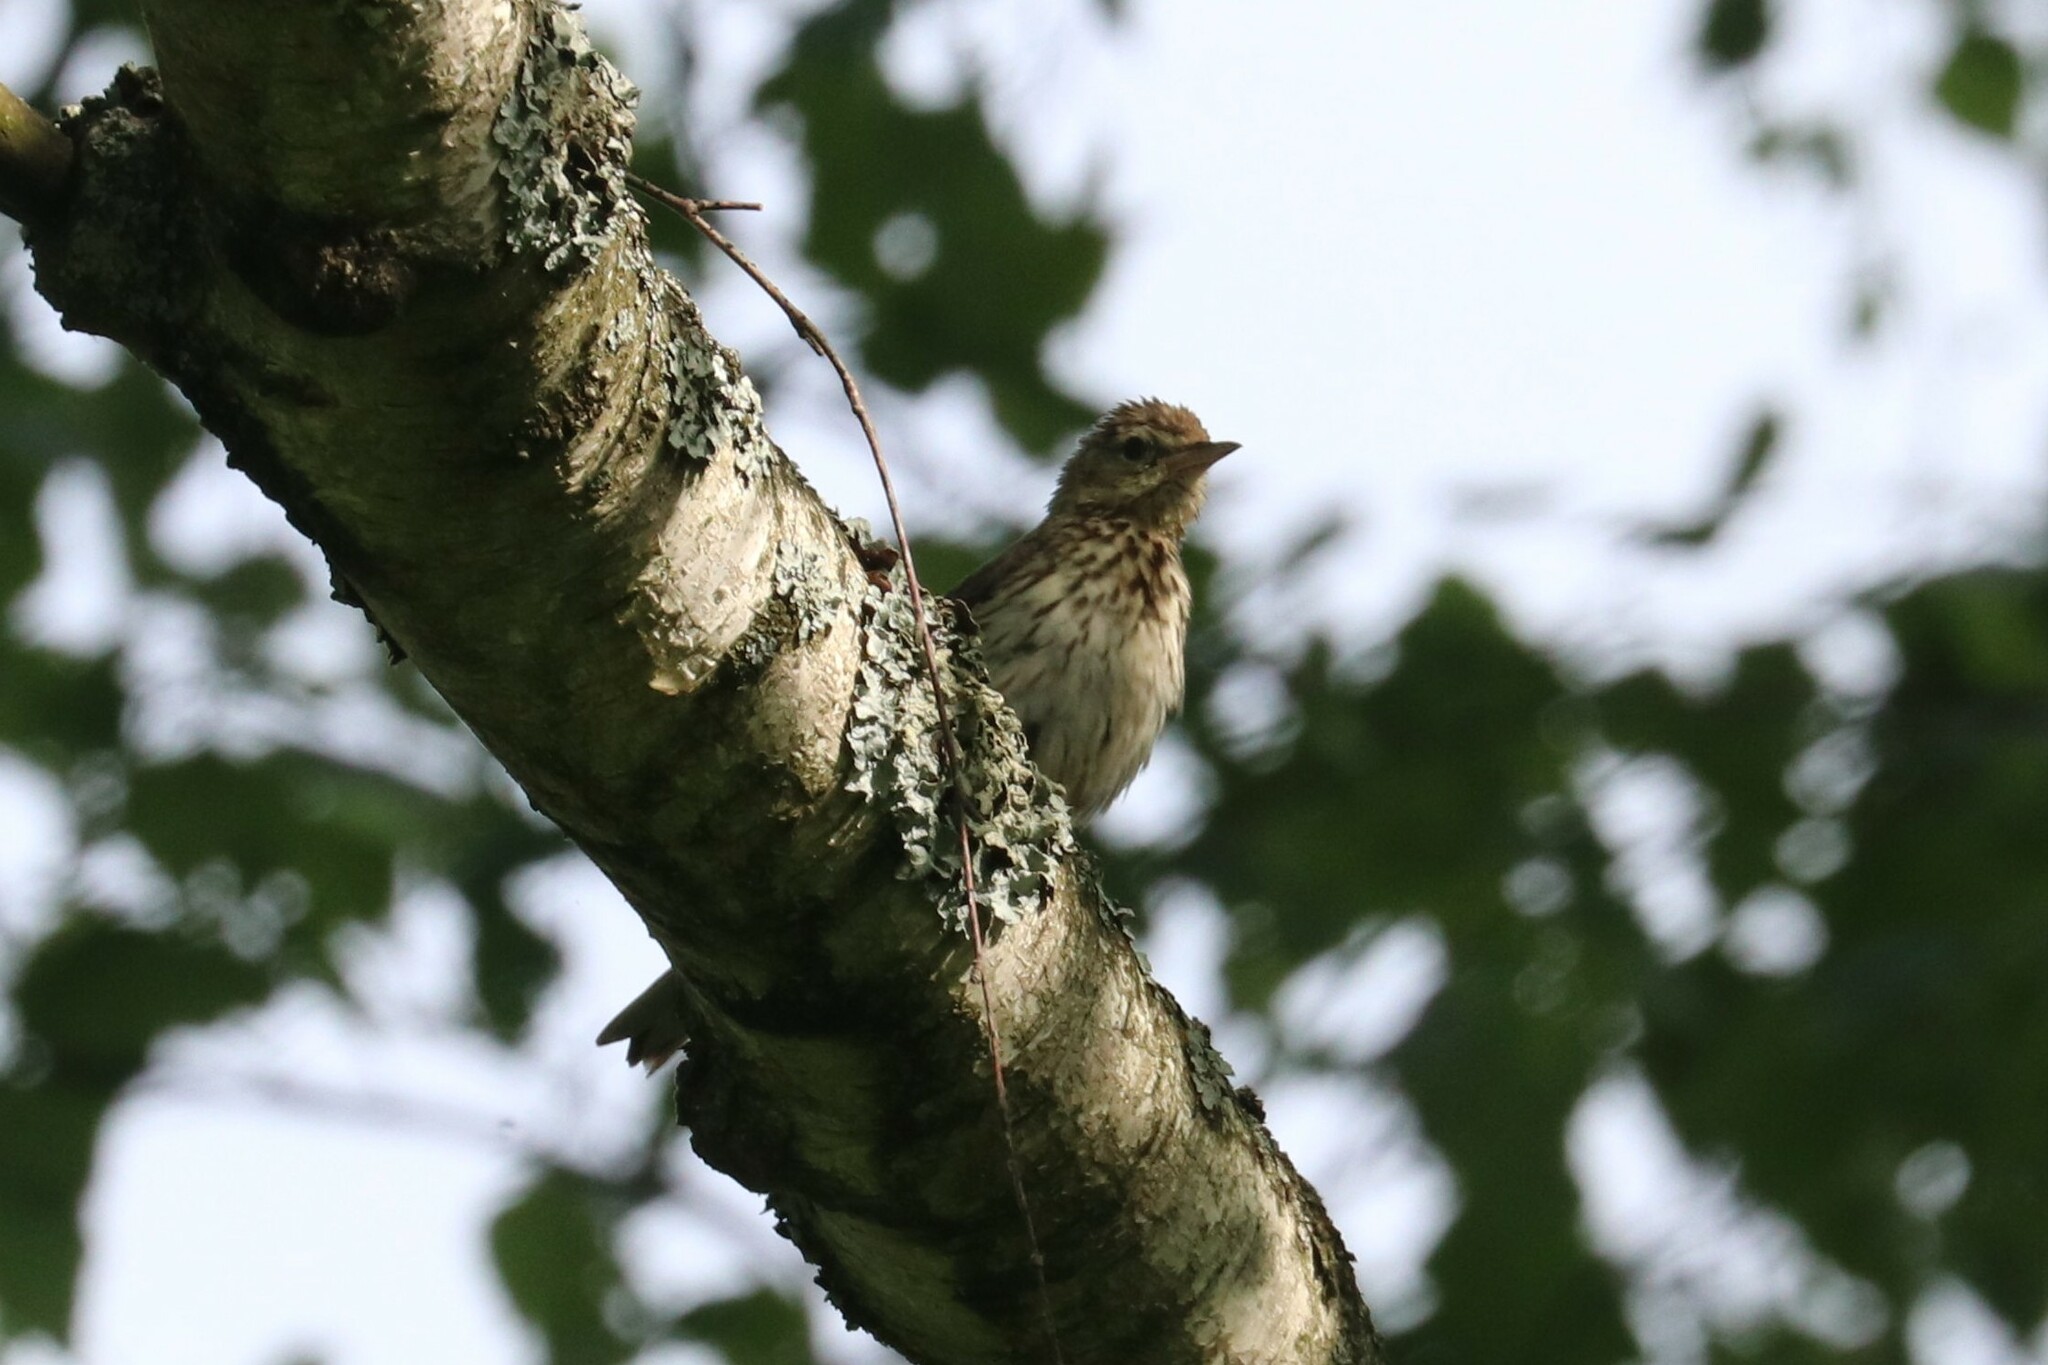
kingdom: Animalia
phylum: Chordata
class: Aves
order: Passeriformes
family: Motacillidae
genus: Anthus
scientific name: Anthus trivialis
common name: Tree pipit
